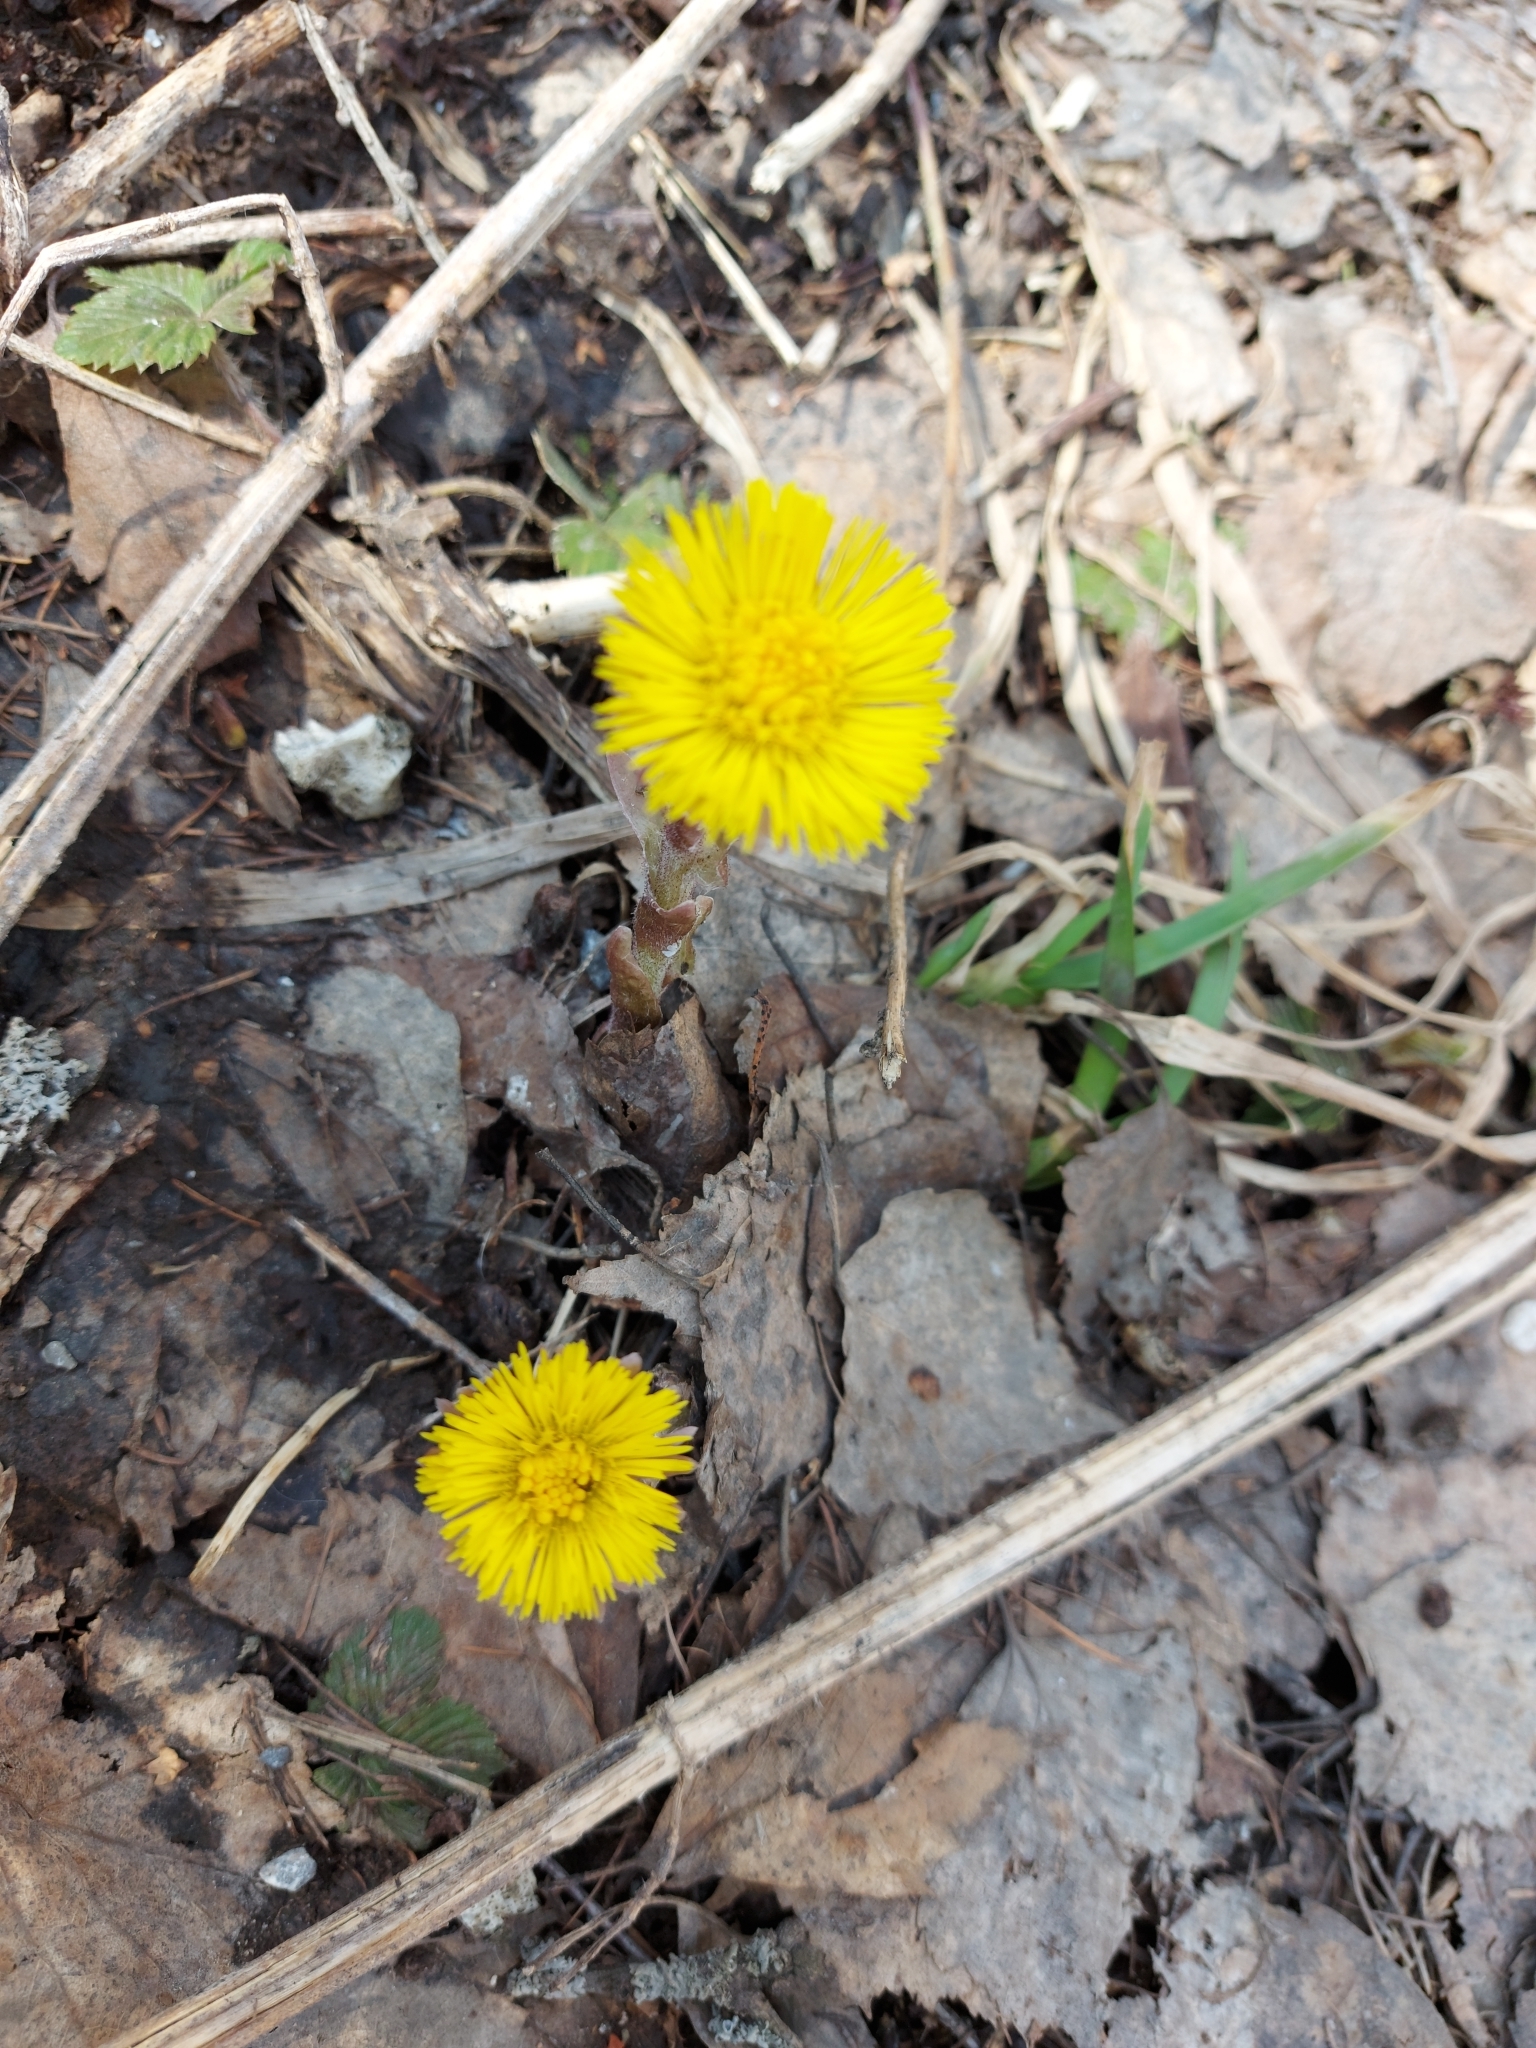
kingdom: Plantae
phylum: Tracheophyta
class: Magnoliopsida
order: Asterales
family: Asteraceae
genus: Tussilago
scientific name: Tussilago farfara
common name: Coltsfoot
